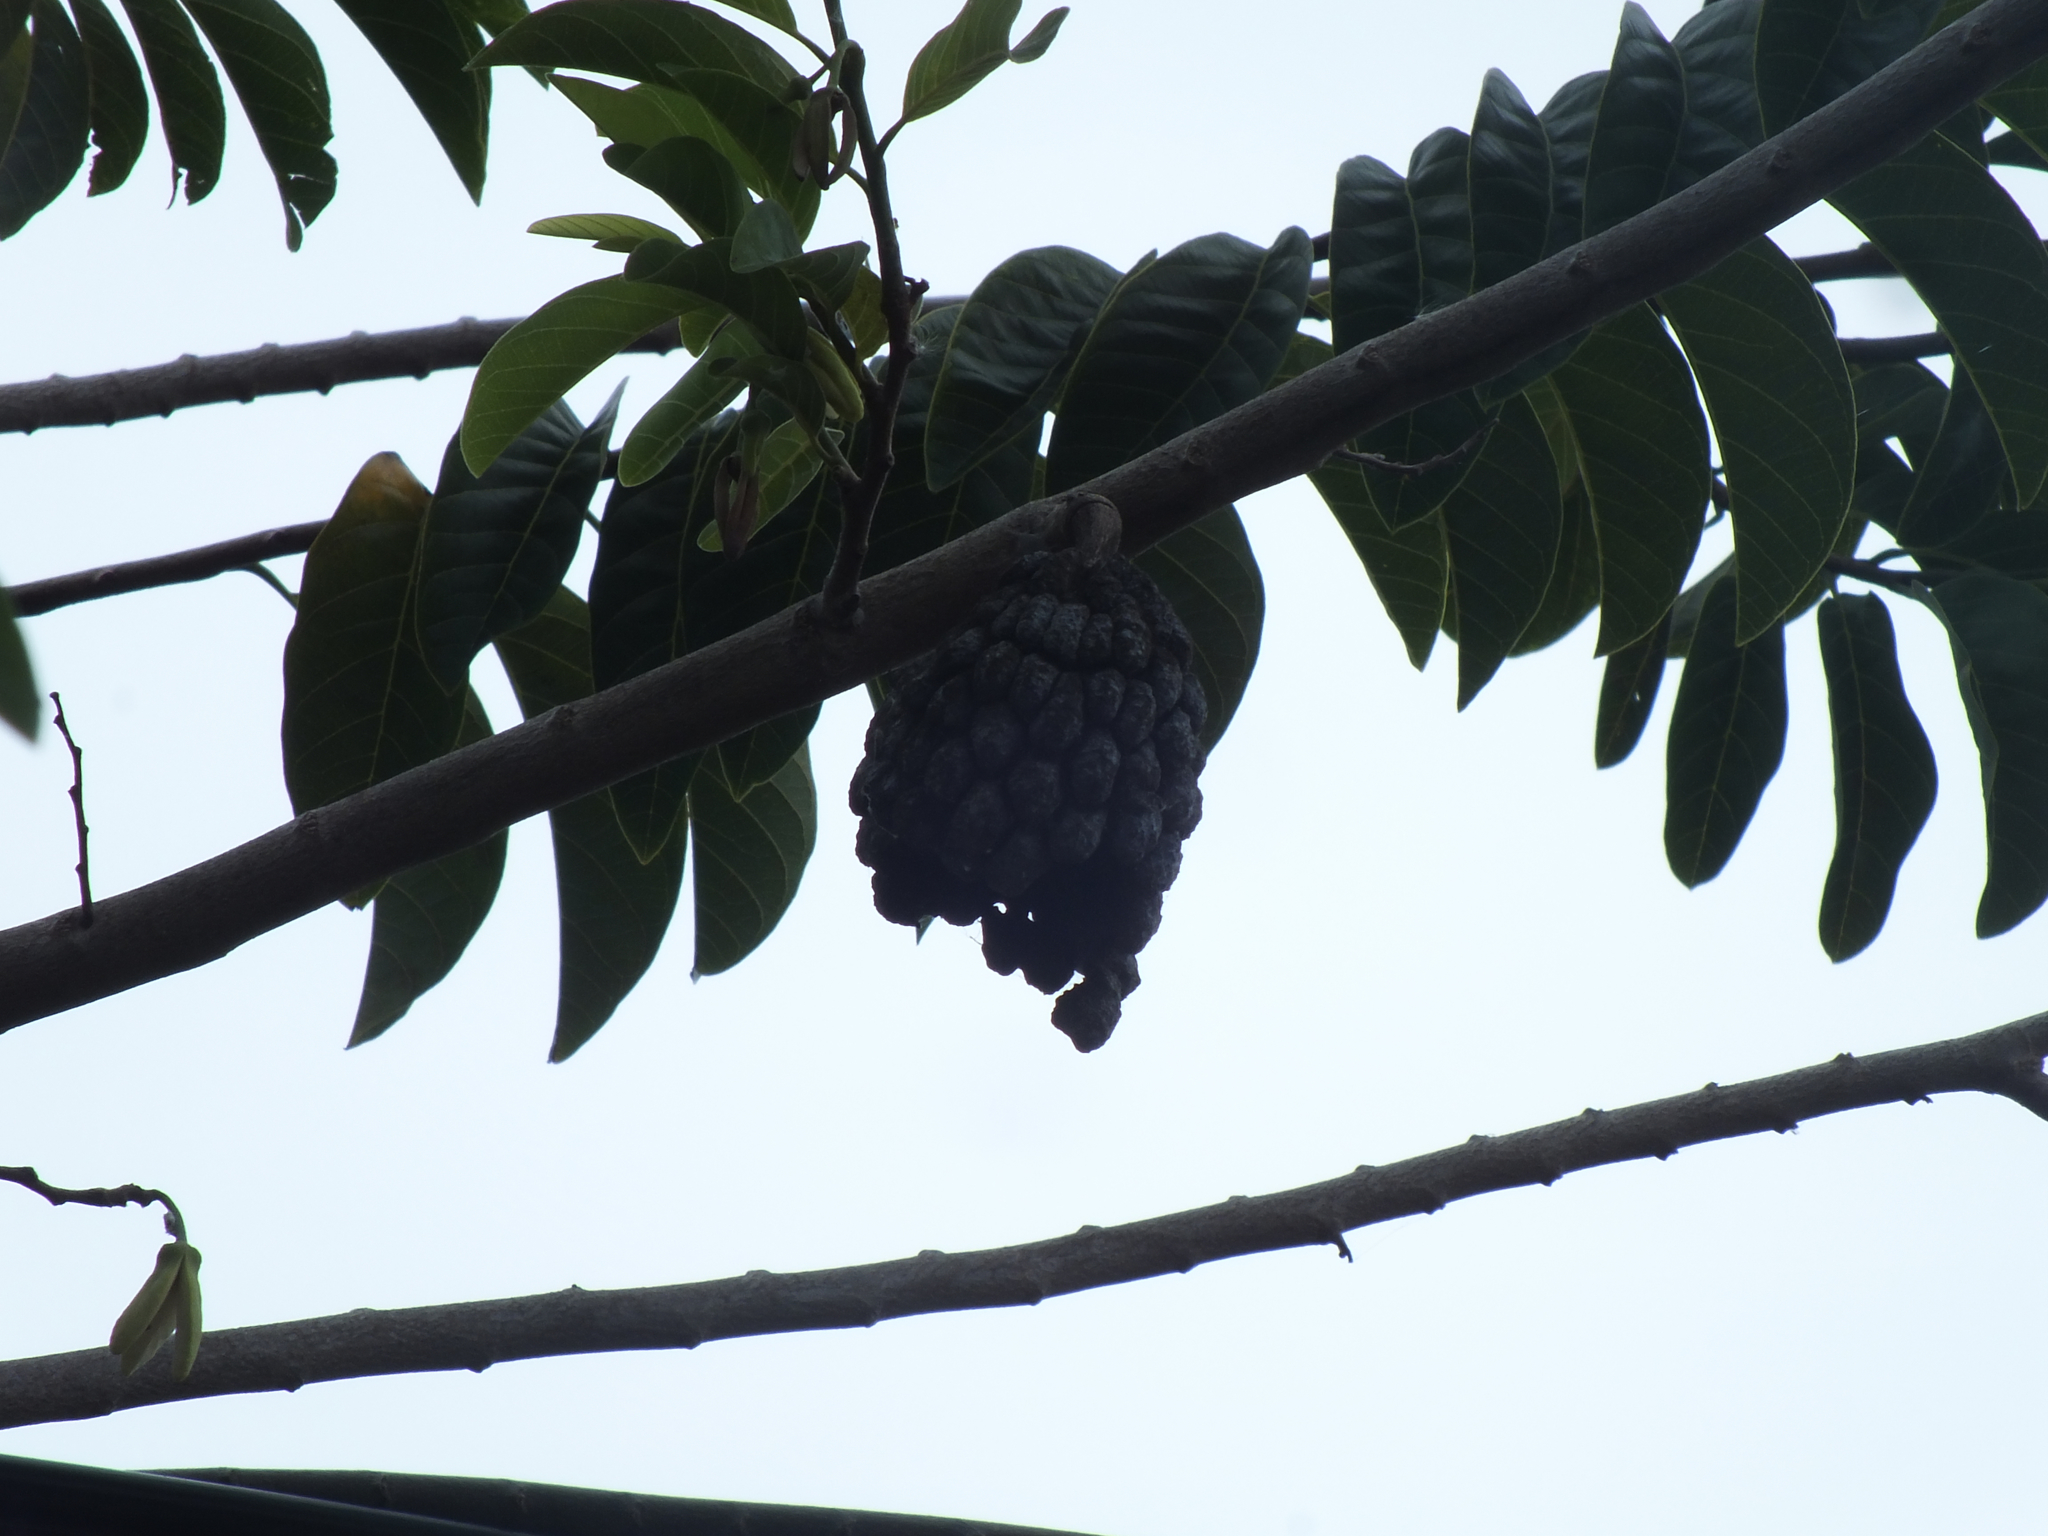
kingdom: Plantae
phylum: Tracheophyta
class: Magnoliopsida
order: Magnoliales
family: Annonaceae
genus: Annona
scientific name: Annona squamosa
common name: Custard-apple
